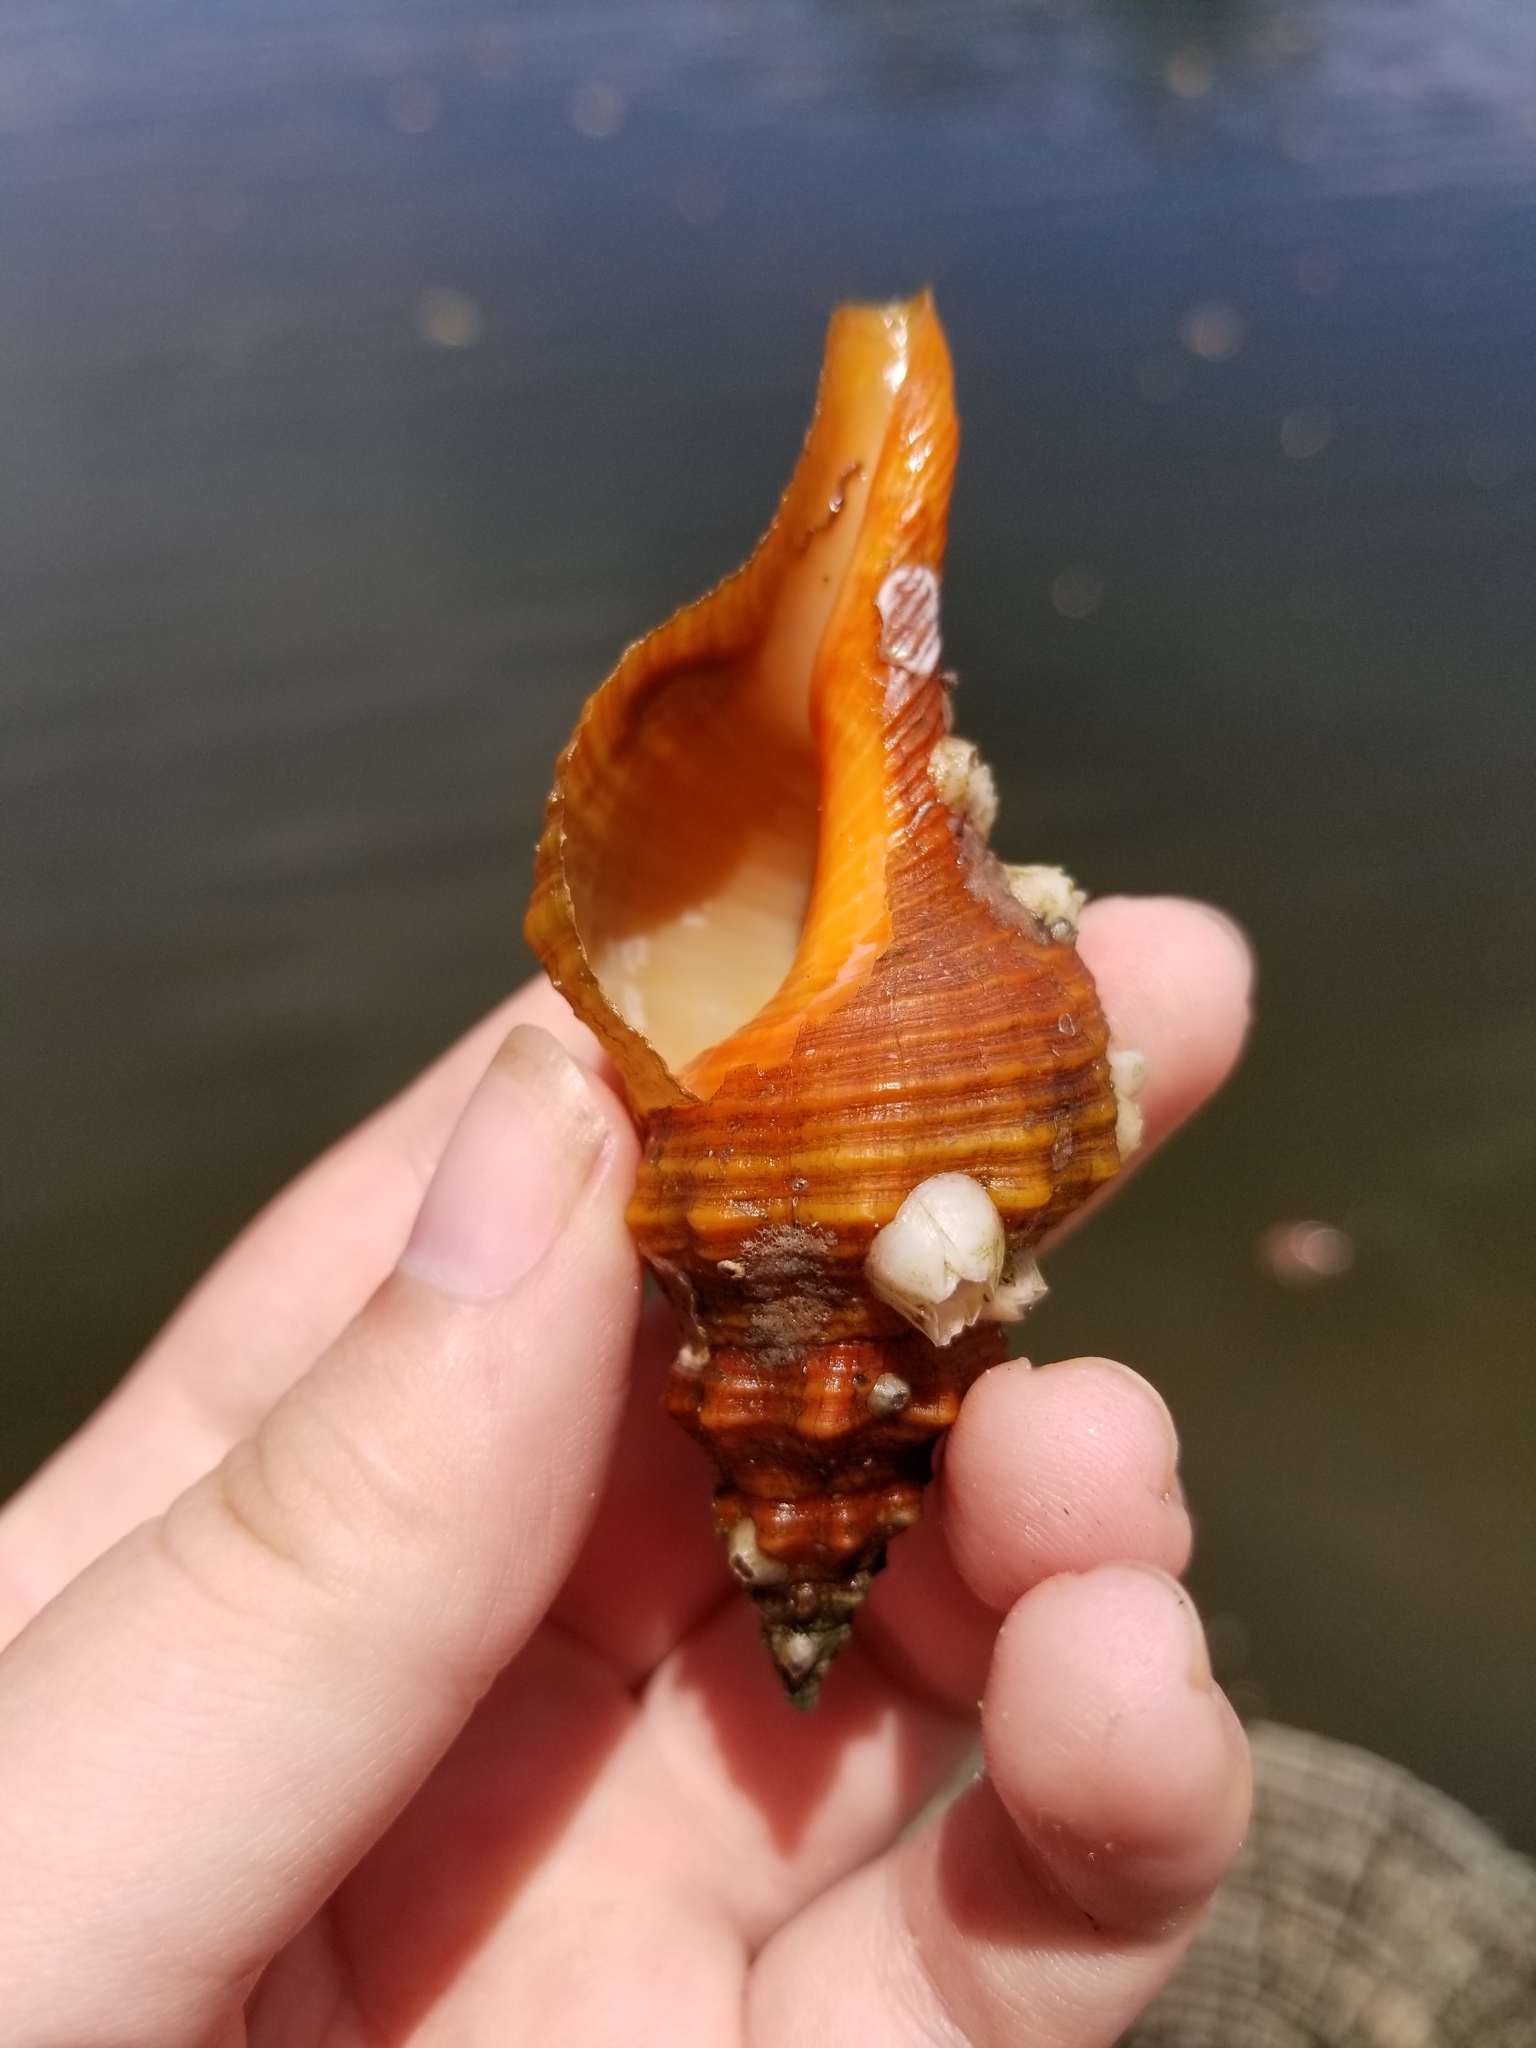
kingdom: Animalia
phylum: Mollusca
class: Gastropoda
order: Neogastropoda
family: Fasciolariidae
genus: Triplofusus
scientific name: Triplofusus giganteus
